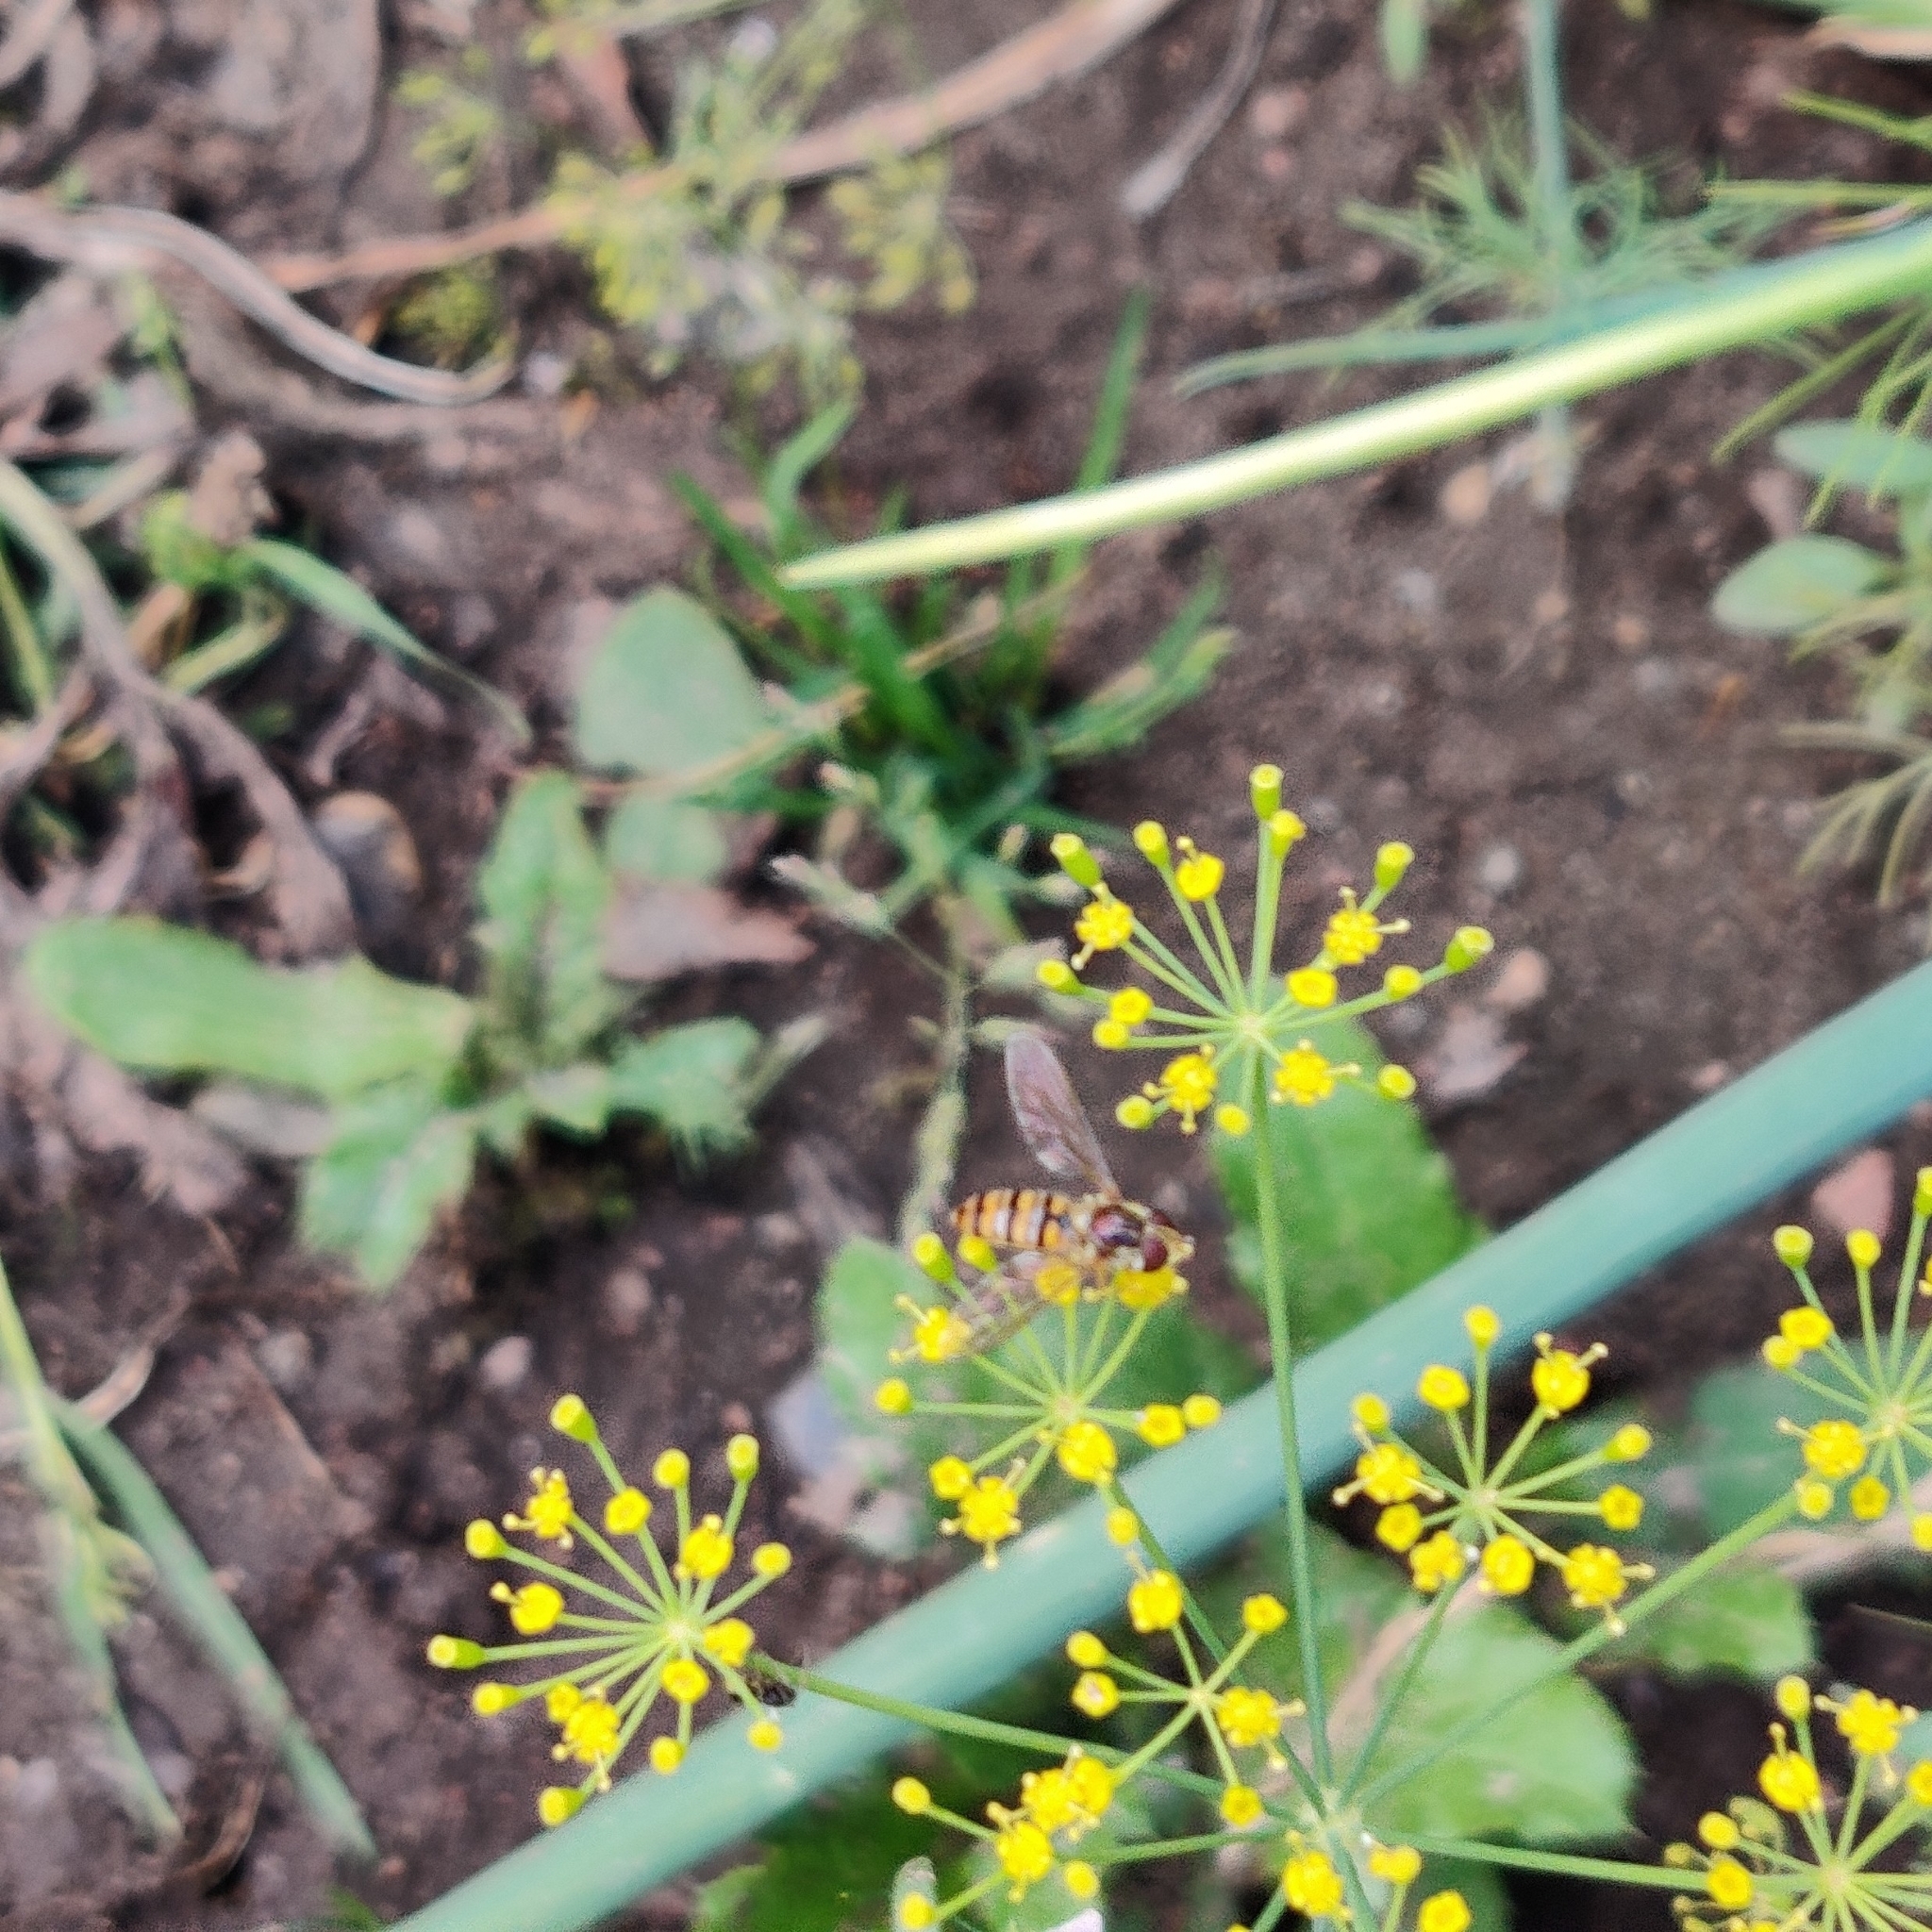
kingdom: Animalia
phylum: Arthropoda
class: Insecta
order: Diptera
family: Syrphidae
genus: Episyrphus
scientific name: Episyrphus balteatus
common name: Marmalade hoverfly
